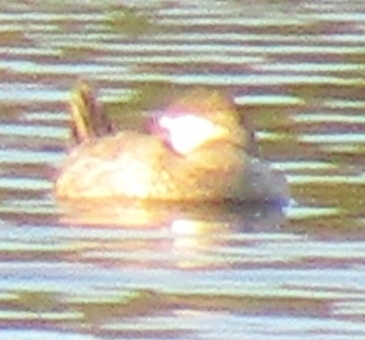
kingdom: Animalia
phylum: Chordata
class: Aves
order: Anseriformes
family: Anatidae
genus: Oxyura
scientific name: Oxyura jamaicensis
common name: Ruddy duck
